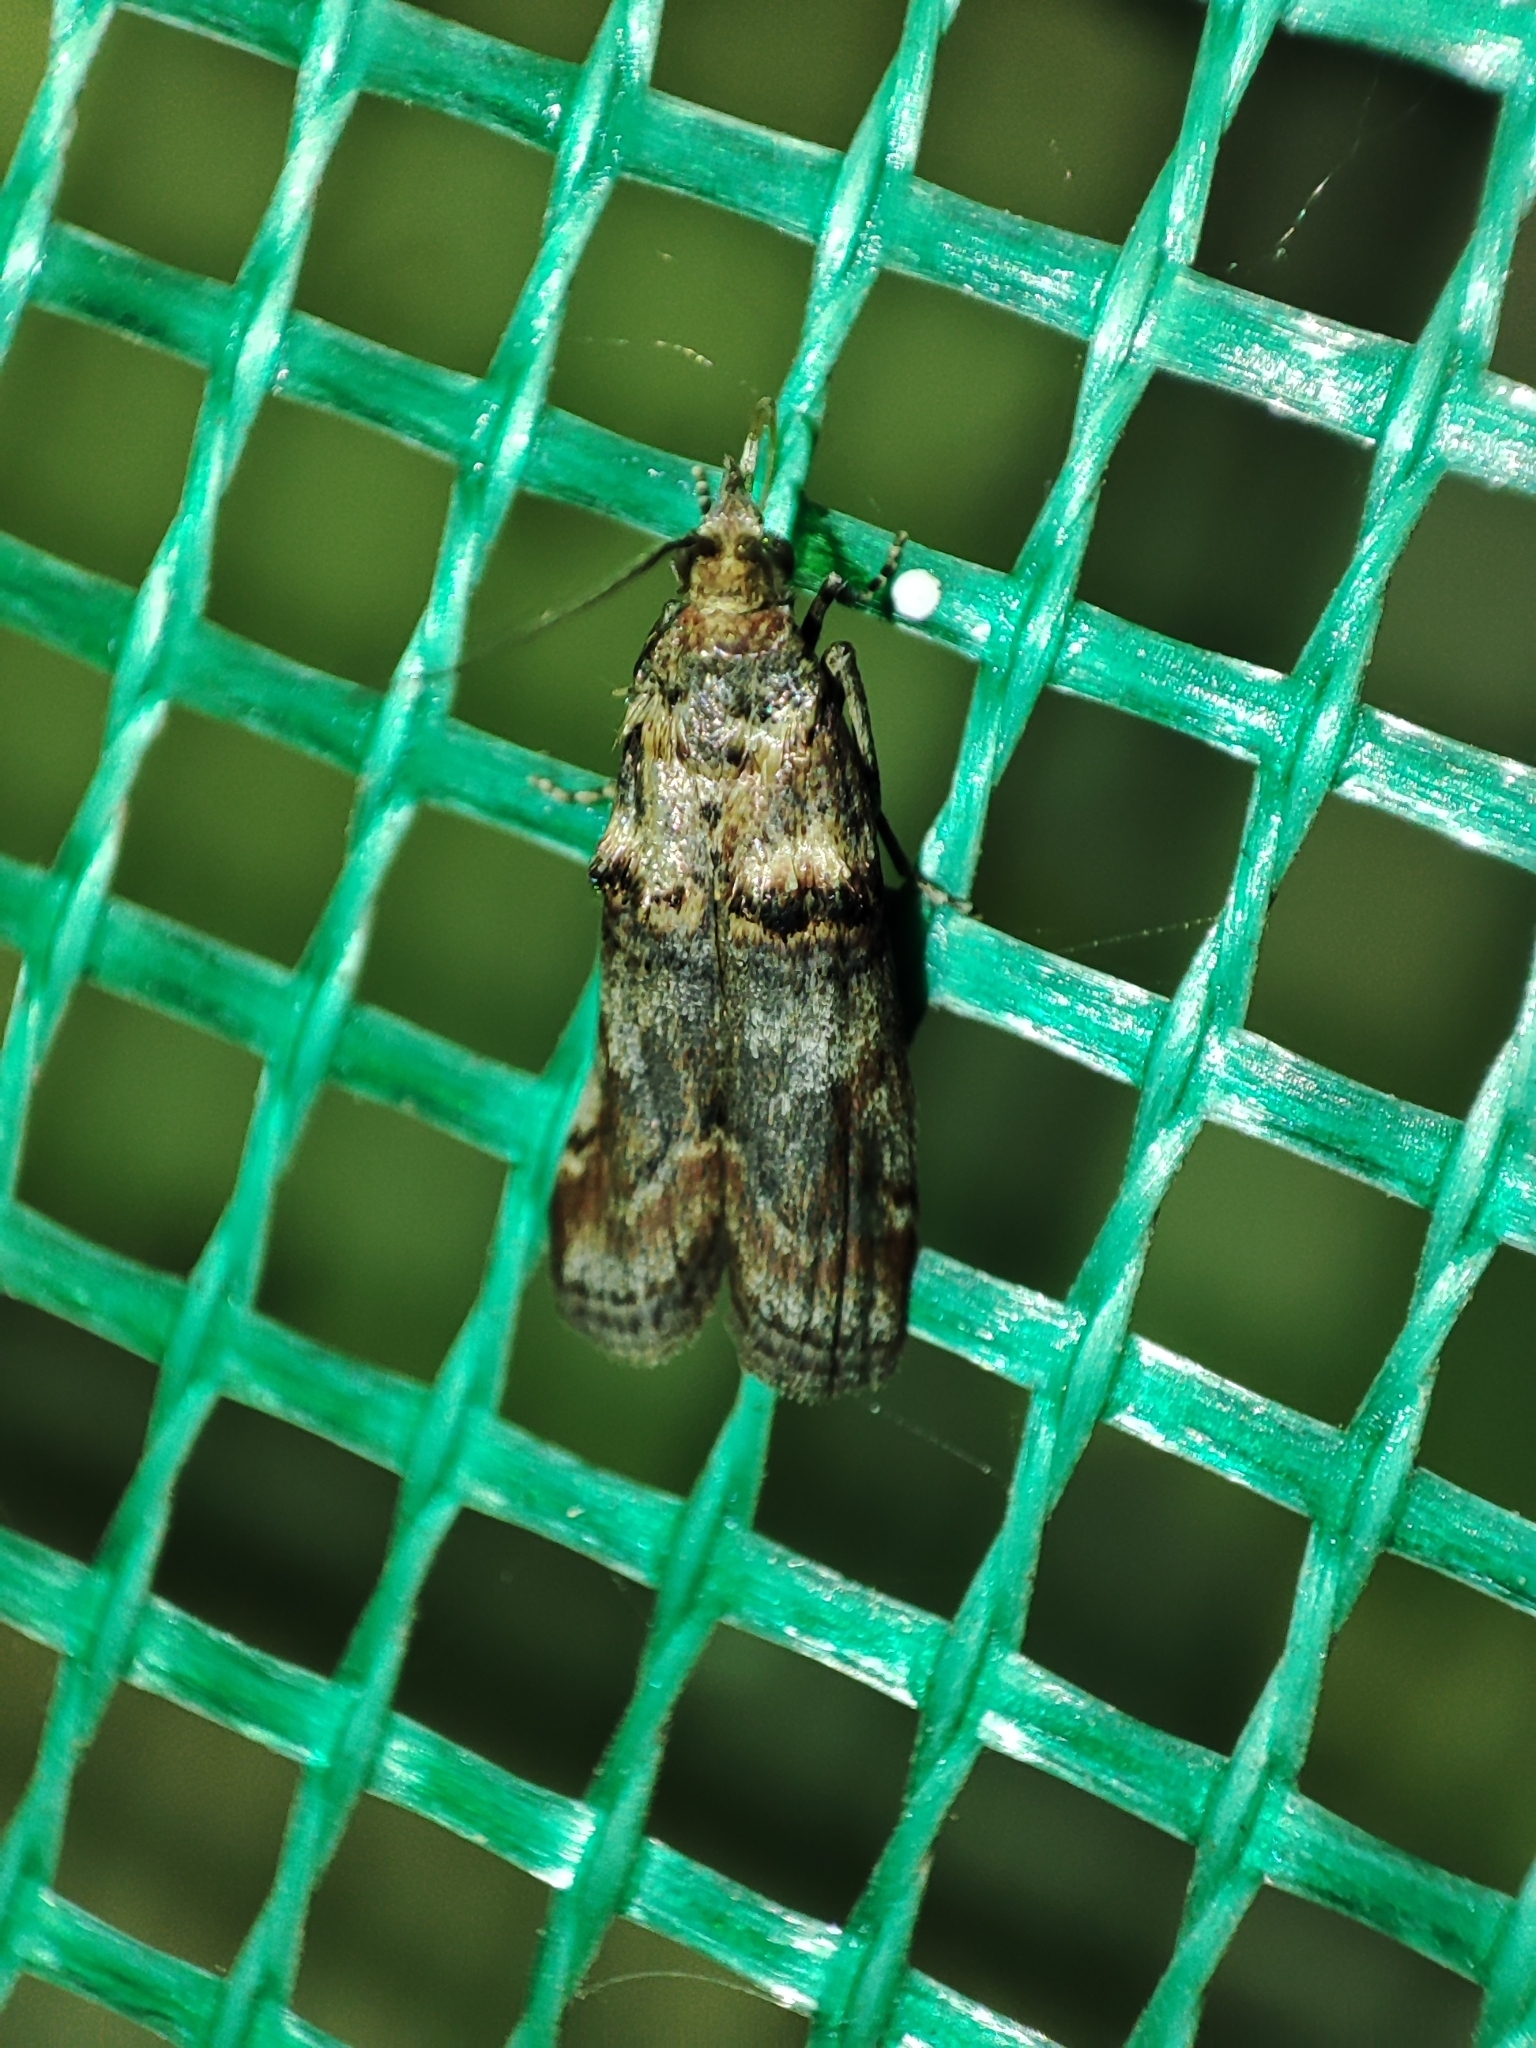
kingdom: Animalia
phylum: Arthropoda
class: Insecta
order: Lepidoptera
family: Pyralidae
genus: Trachonitis
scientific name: Trachonitis cristella
